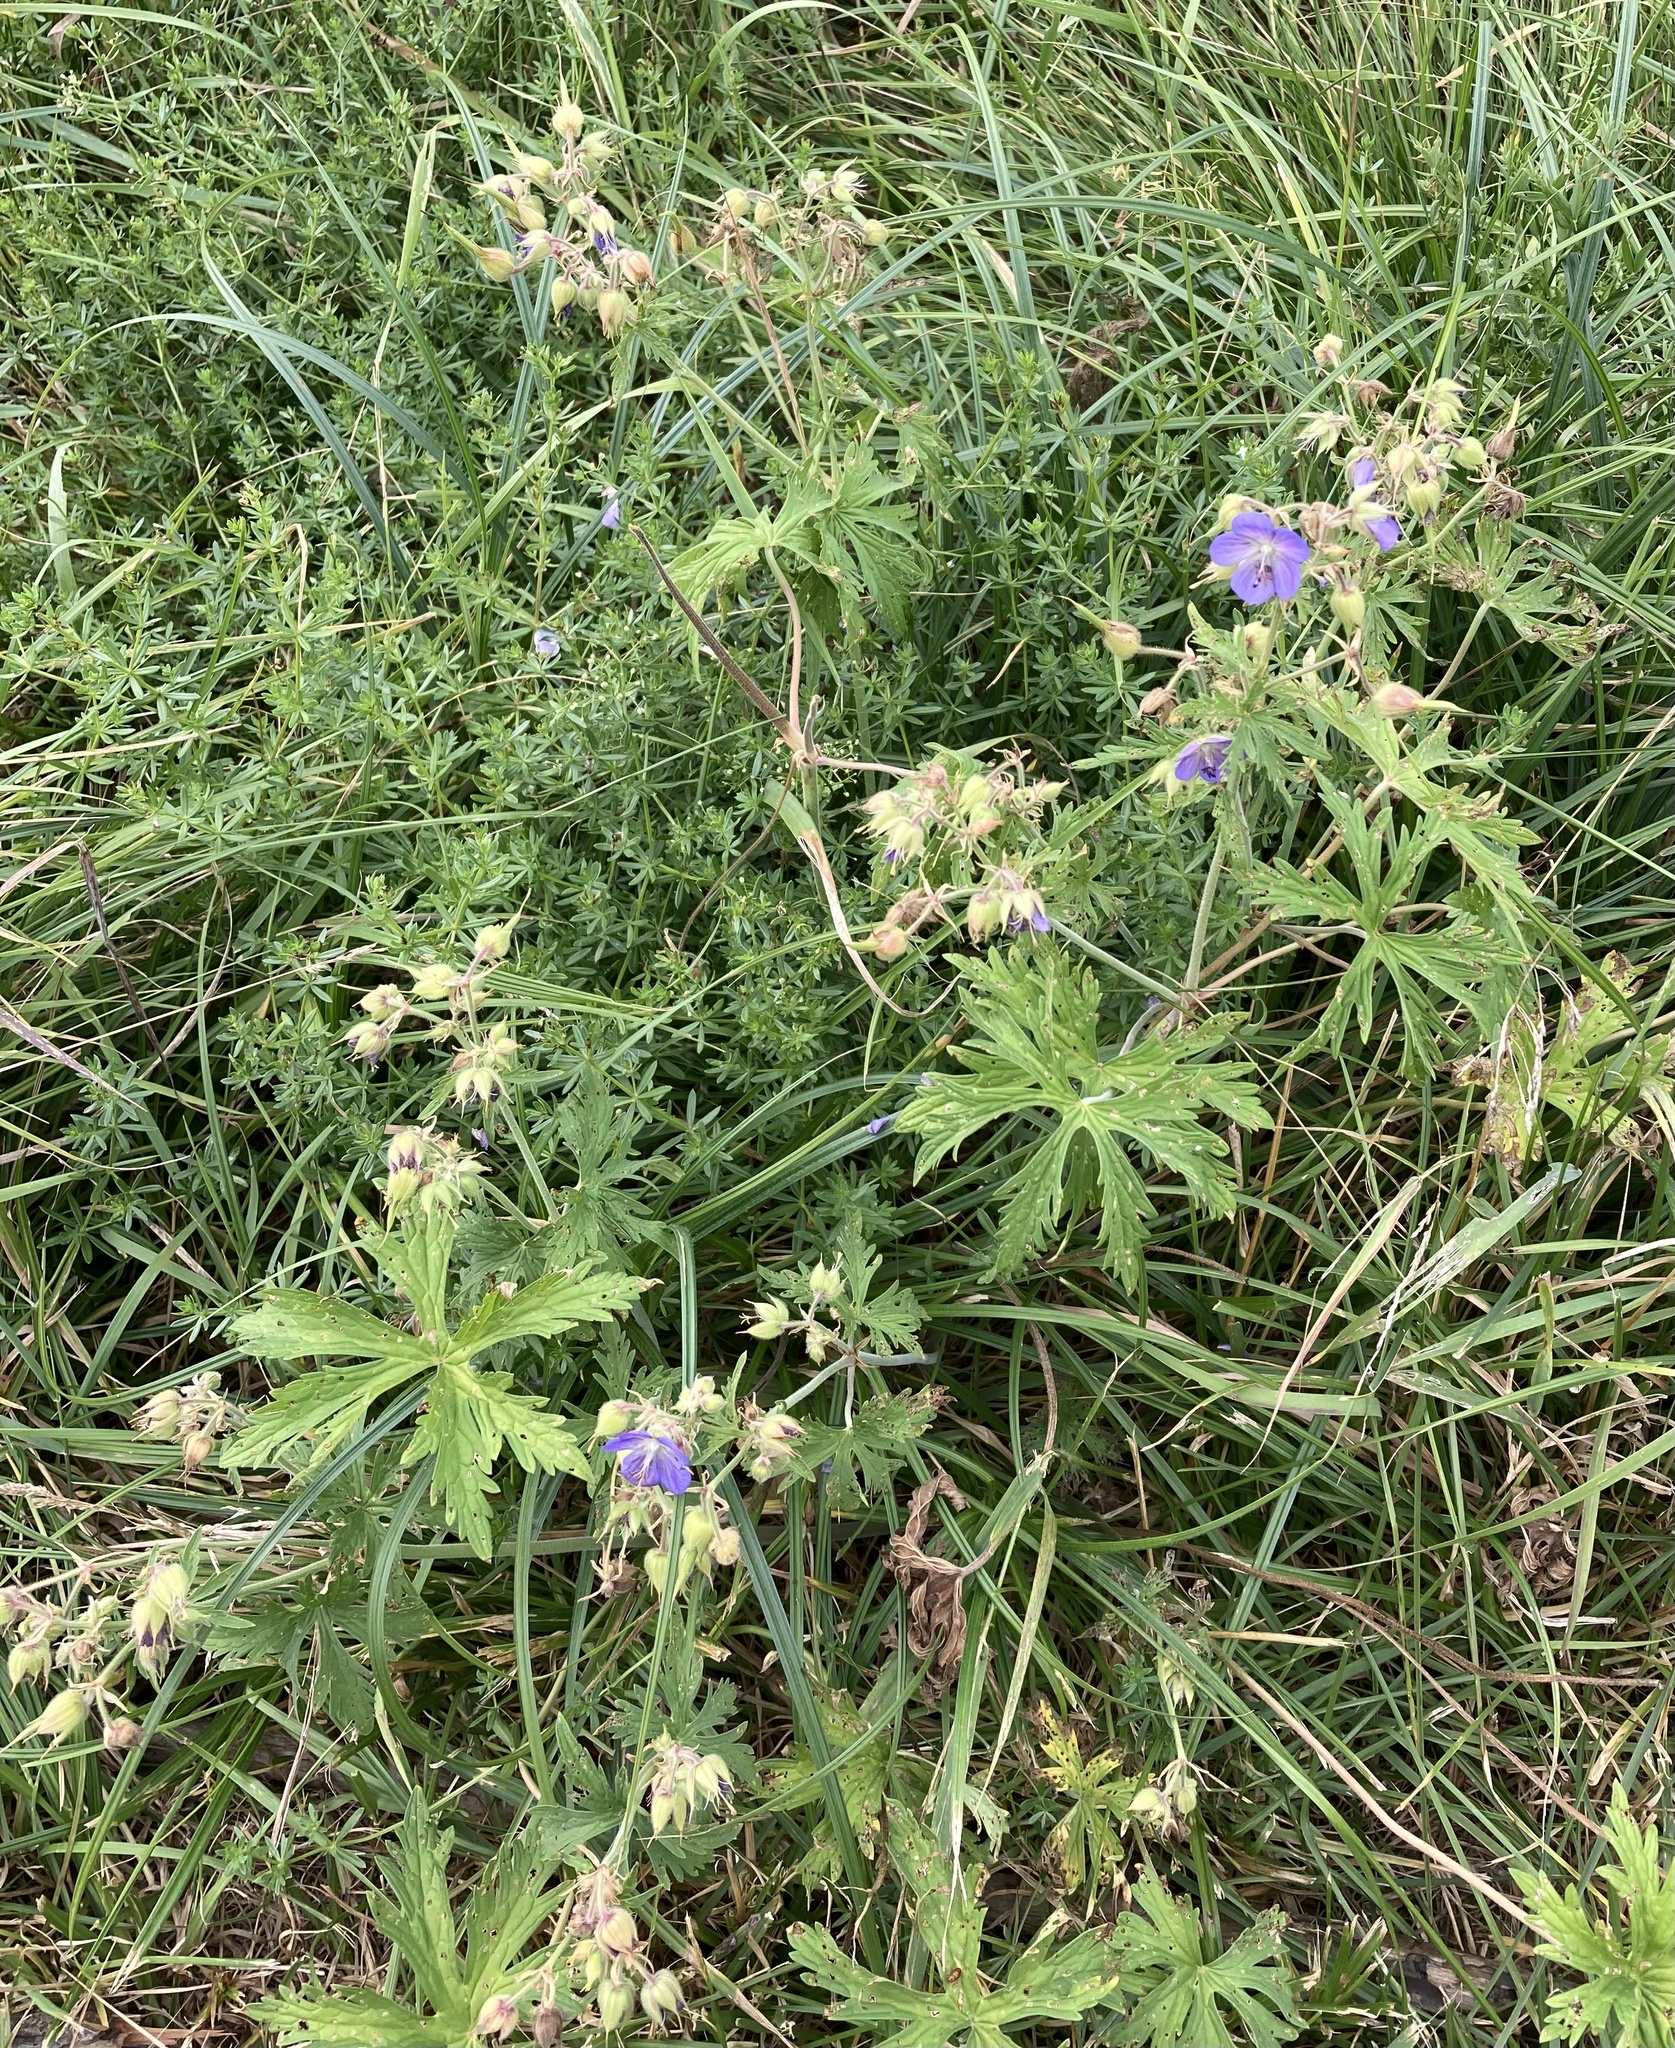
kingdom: Plantae
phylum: Tracheophyta
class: Magnoliopsida
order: Geraniales
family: Geraniaceae
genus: Geranium
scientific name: Geranium pratense
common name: Meadow crane's-bill
